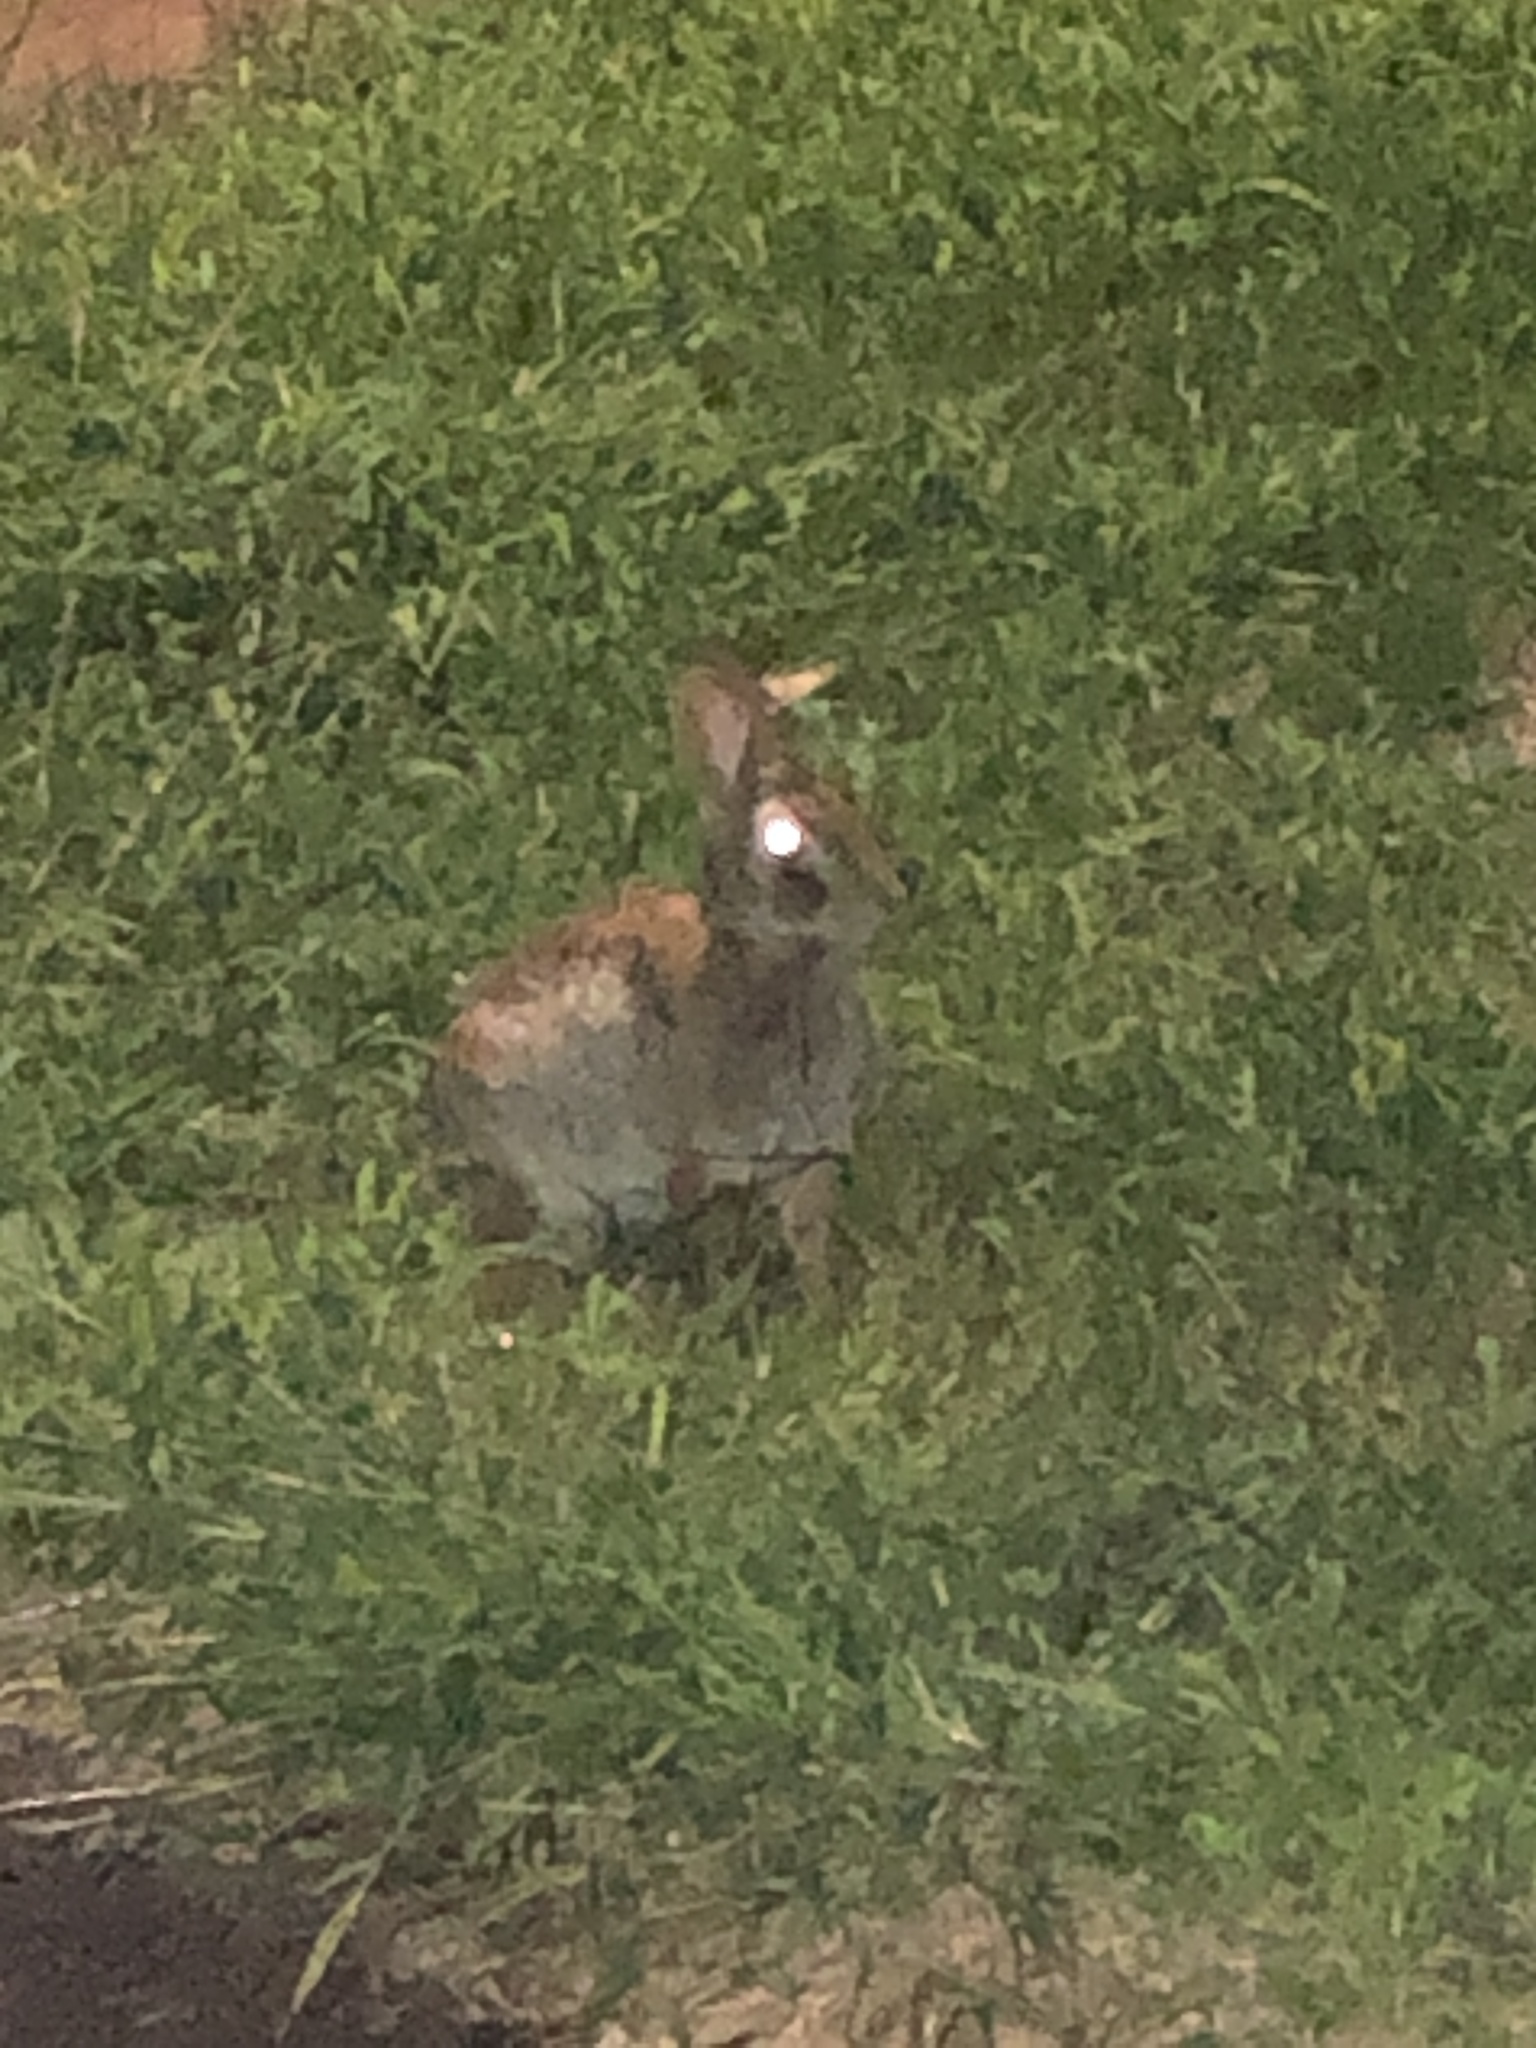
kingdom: Animalia
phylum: Chordata
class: Mammalia
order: Lagomorpha
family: Leporidae
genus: Sylvilagus
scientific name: Sylvilagus floridanus
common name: Eastern cottontail
